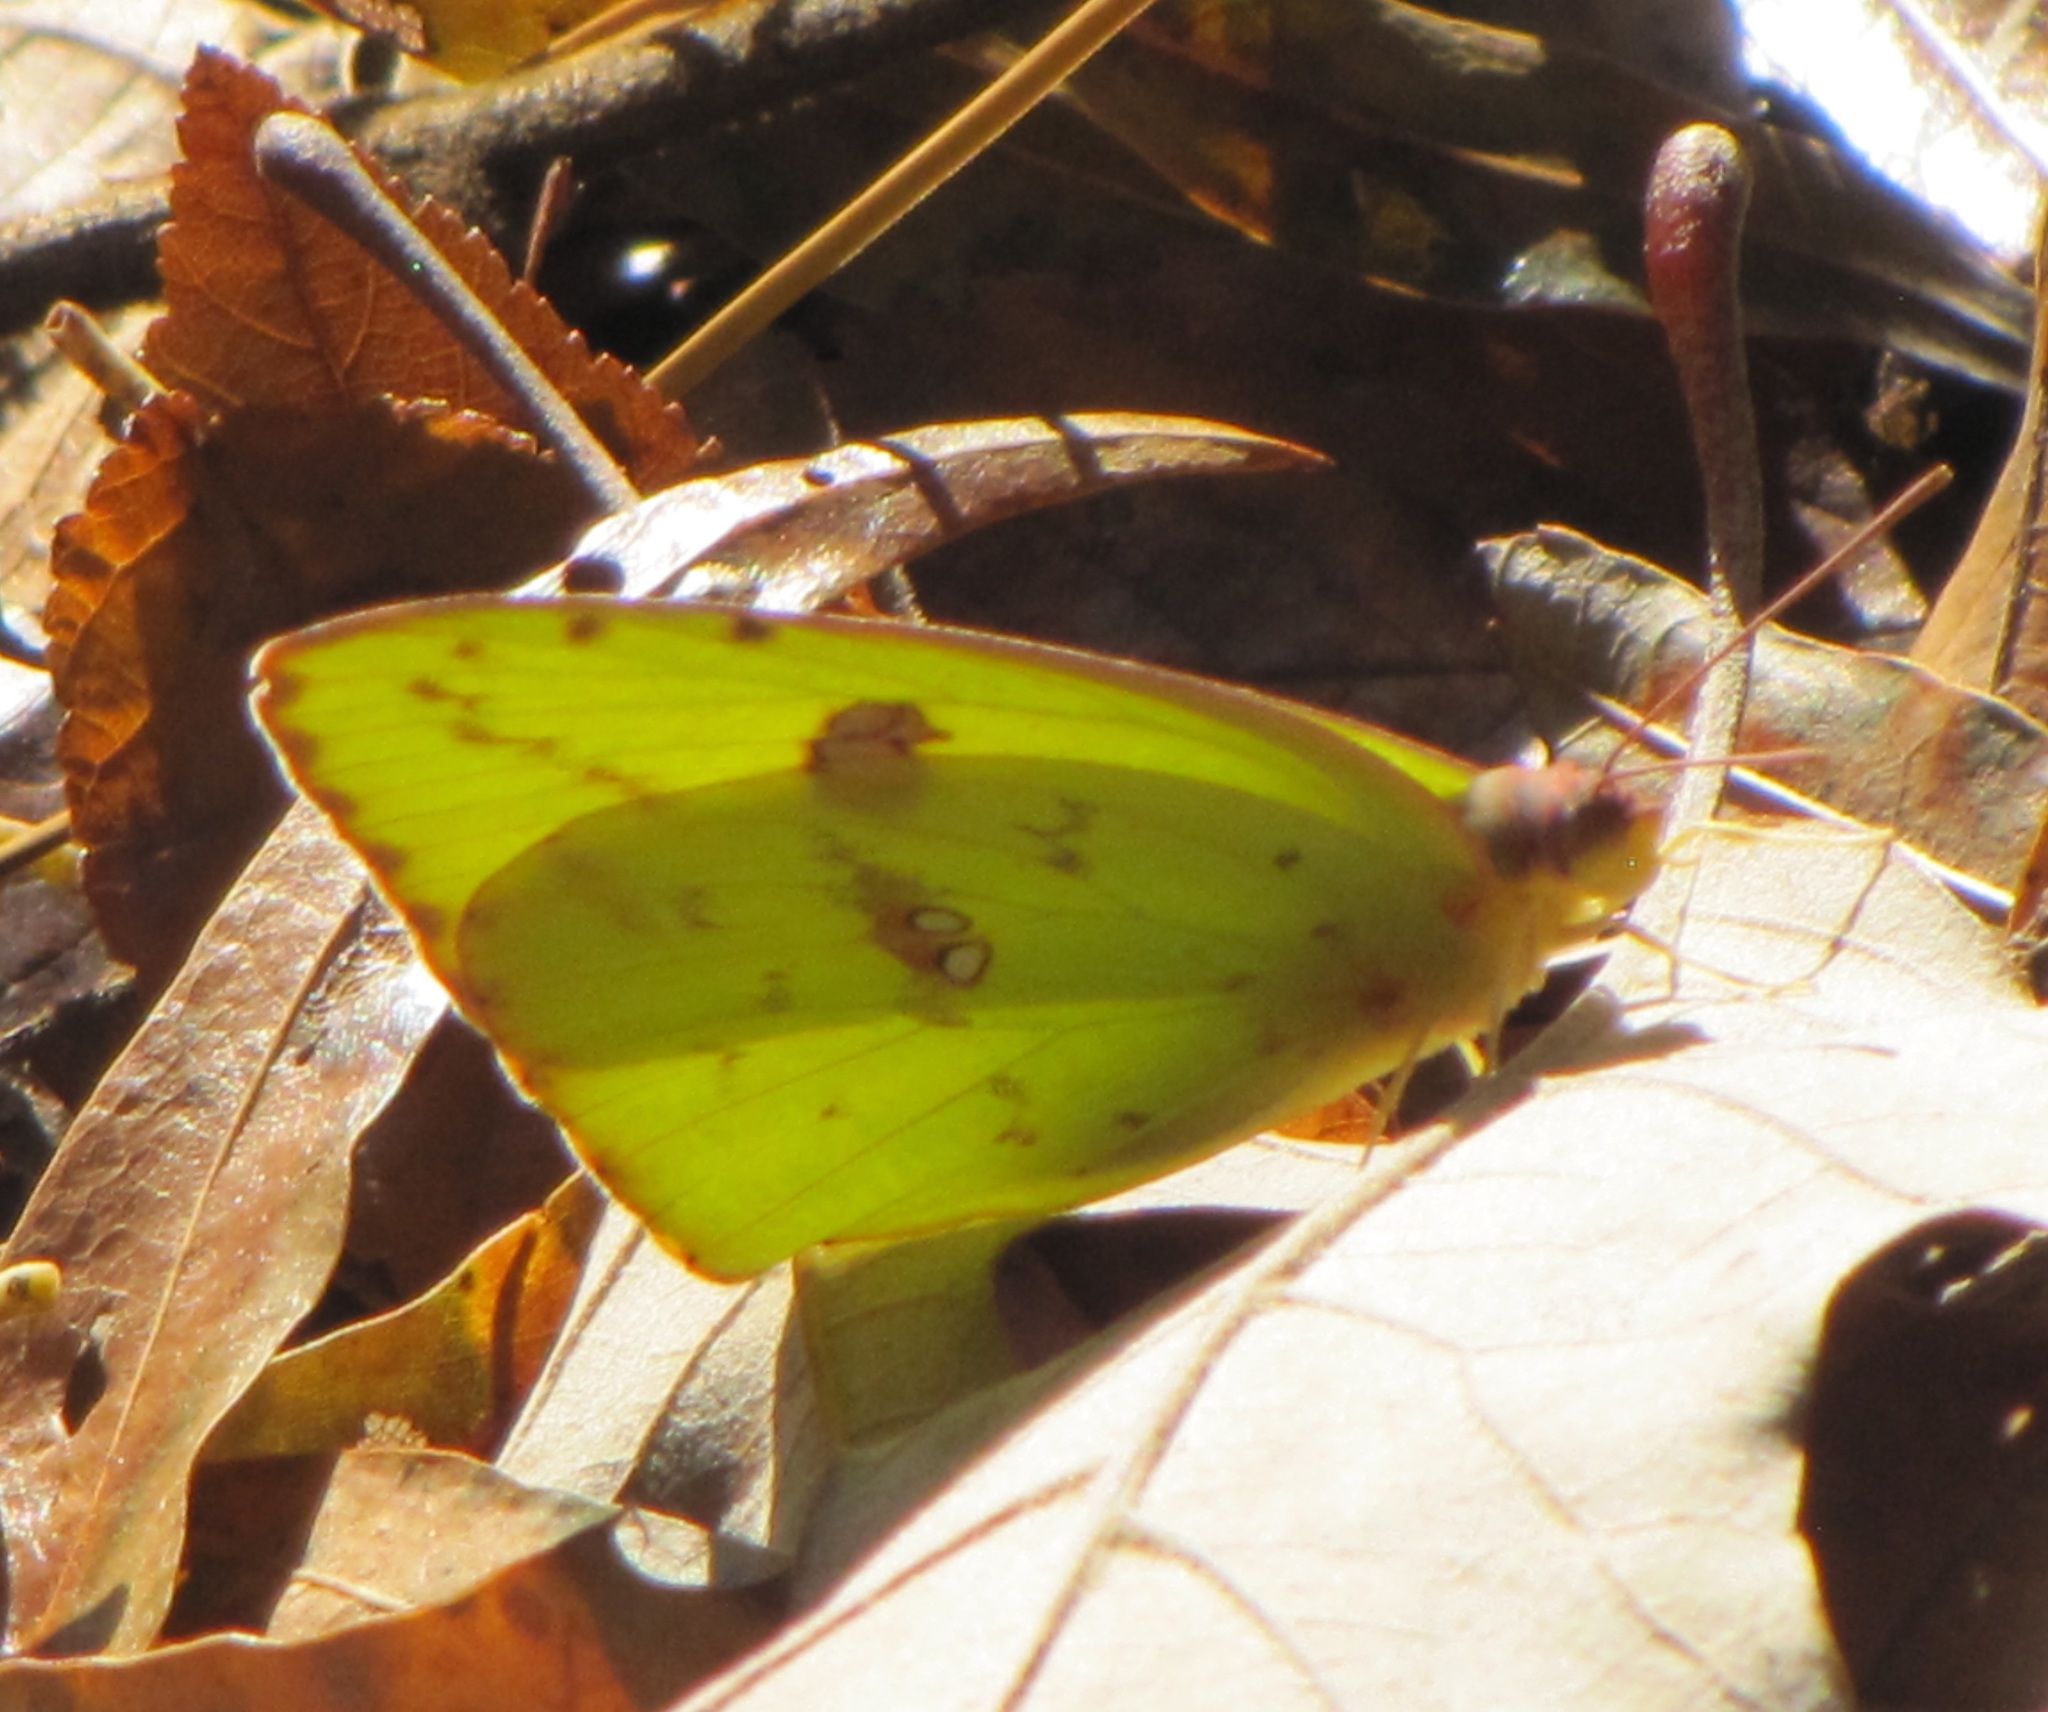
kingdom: Animalia
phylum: Arthropoda
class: Insecta
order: Lepidoptera
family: Pieridae
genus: Phoebis
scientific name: Phoebis sennae
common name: Cloudless sulphur
